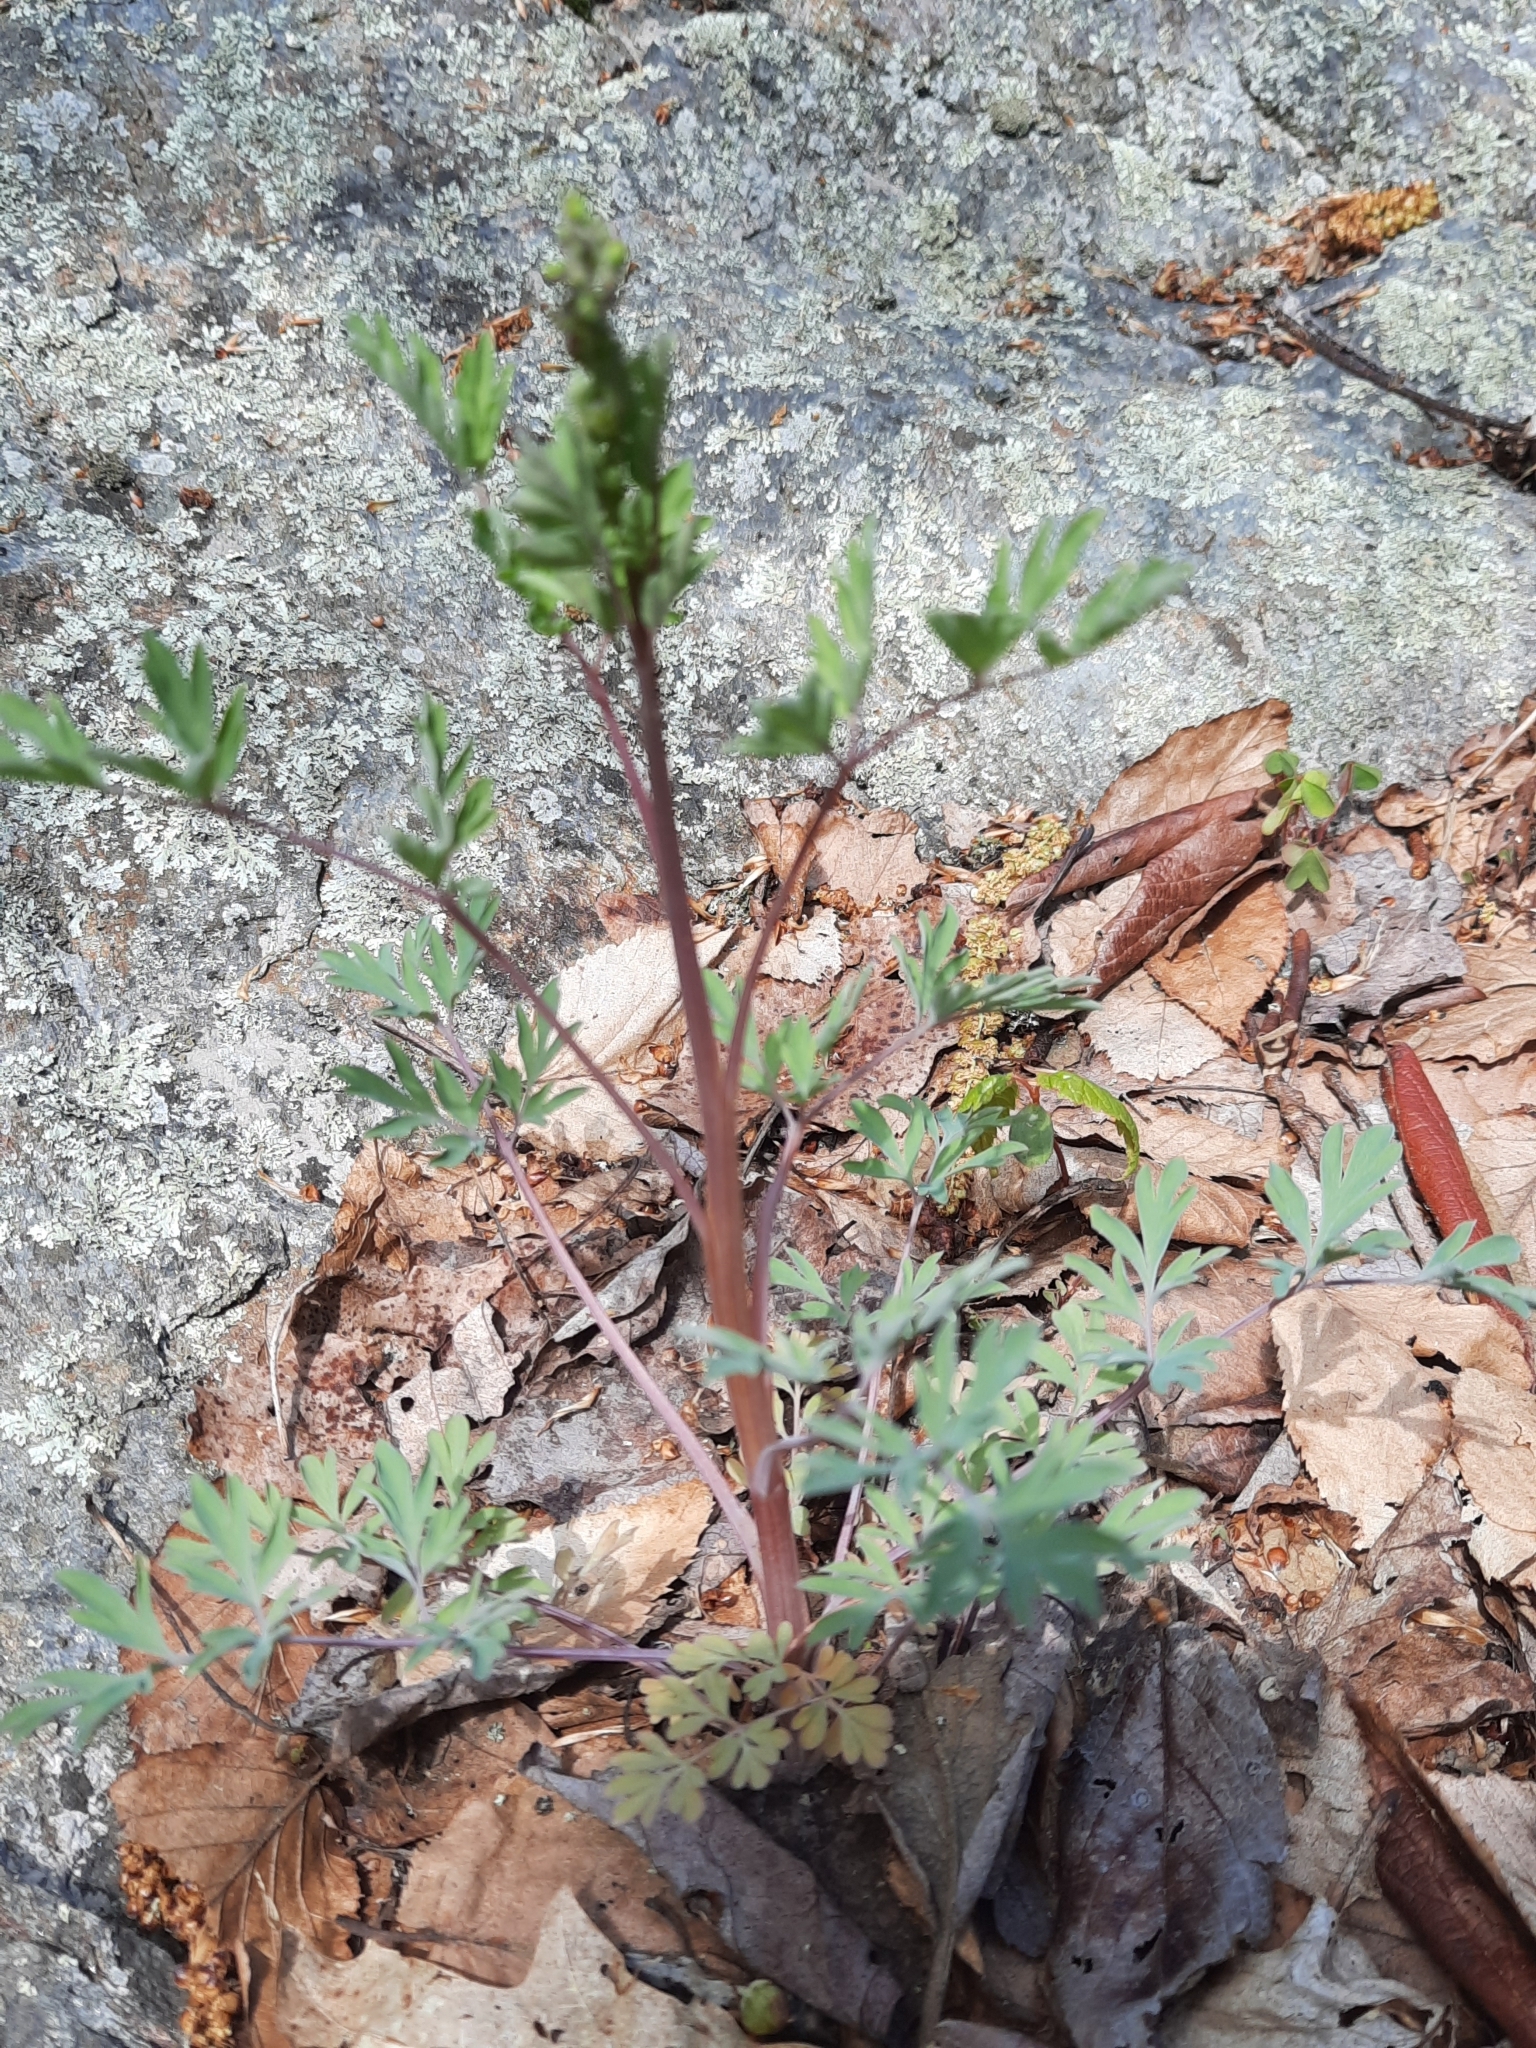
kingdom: Plantae
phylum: Tracheophyta
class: Magnoliopsida
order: Ranunculales
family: Papaveraceae
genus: Capnoides
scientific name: Capnoides sempervirens
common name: Rock harlequin
